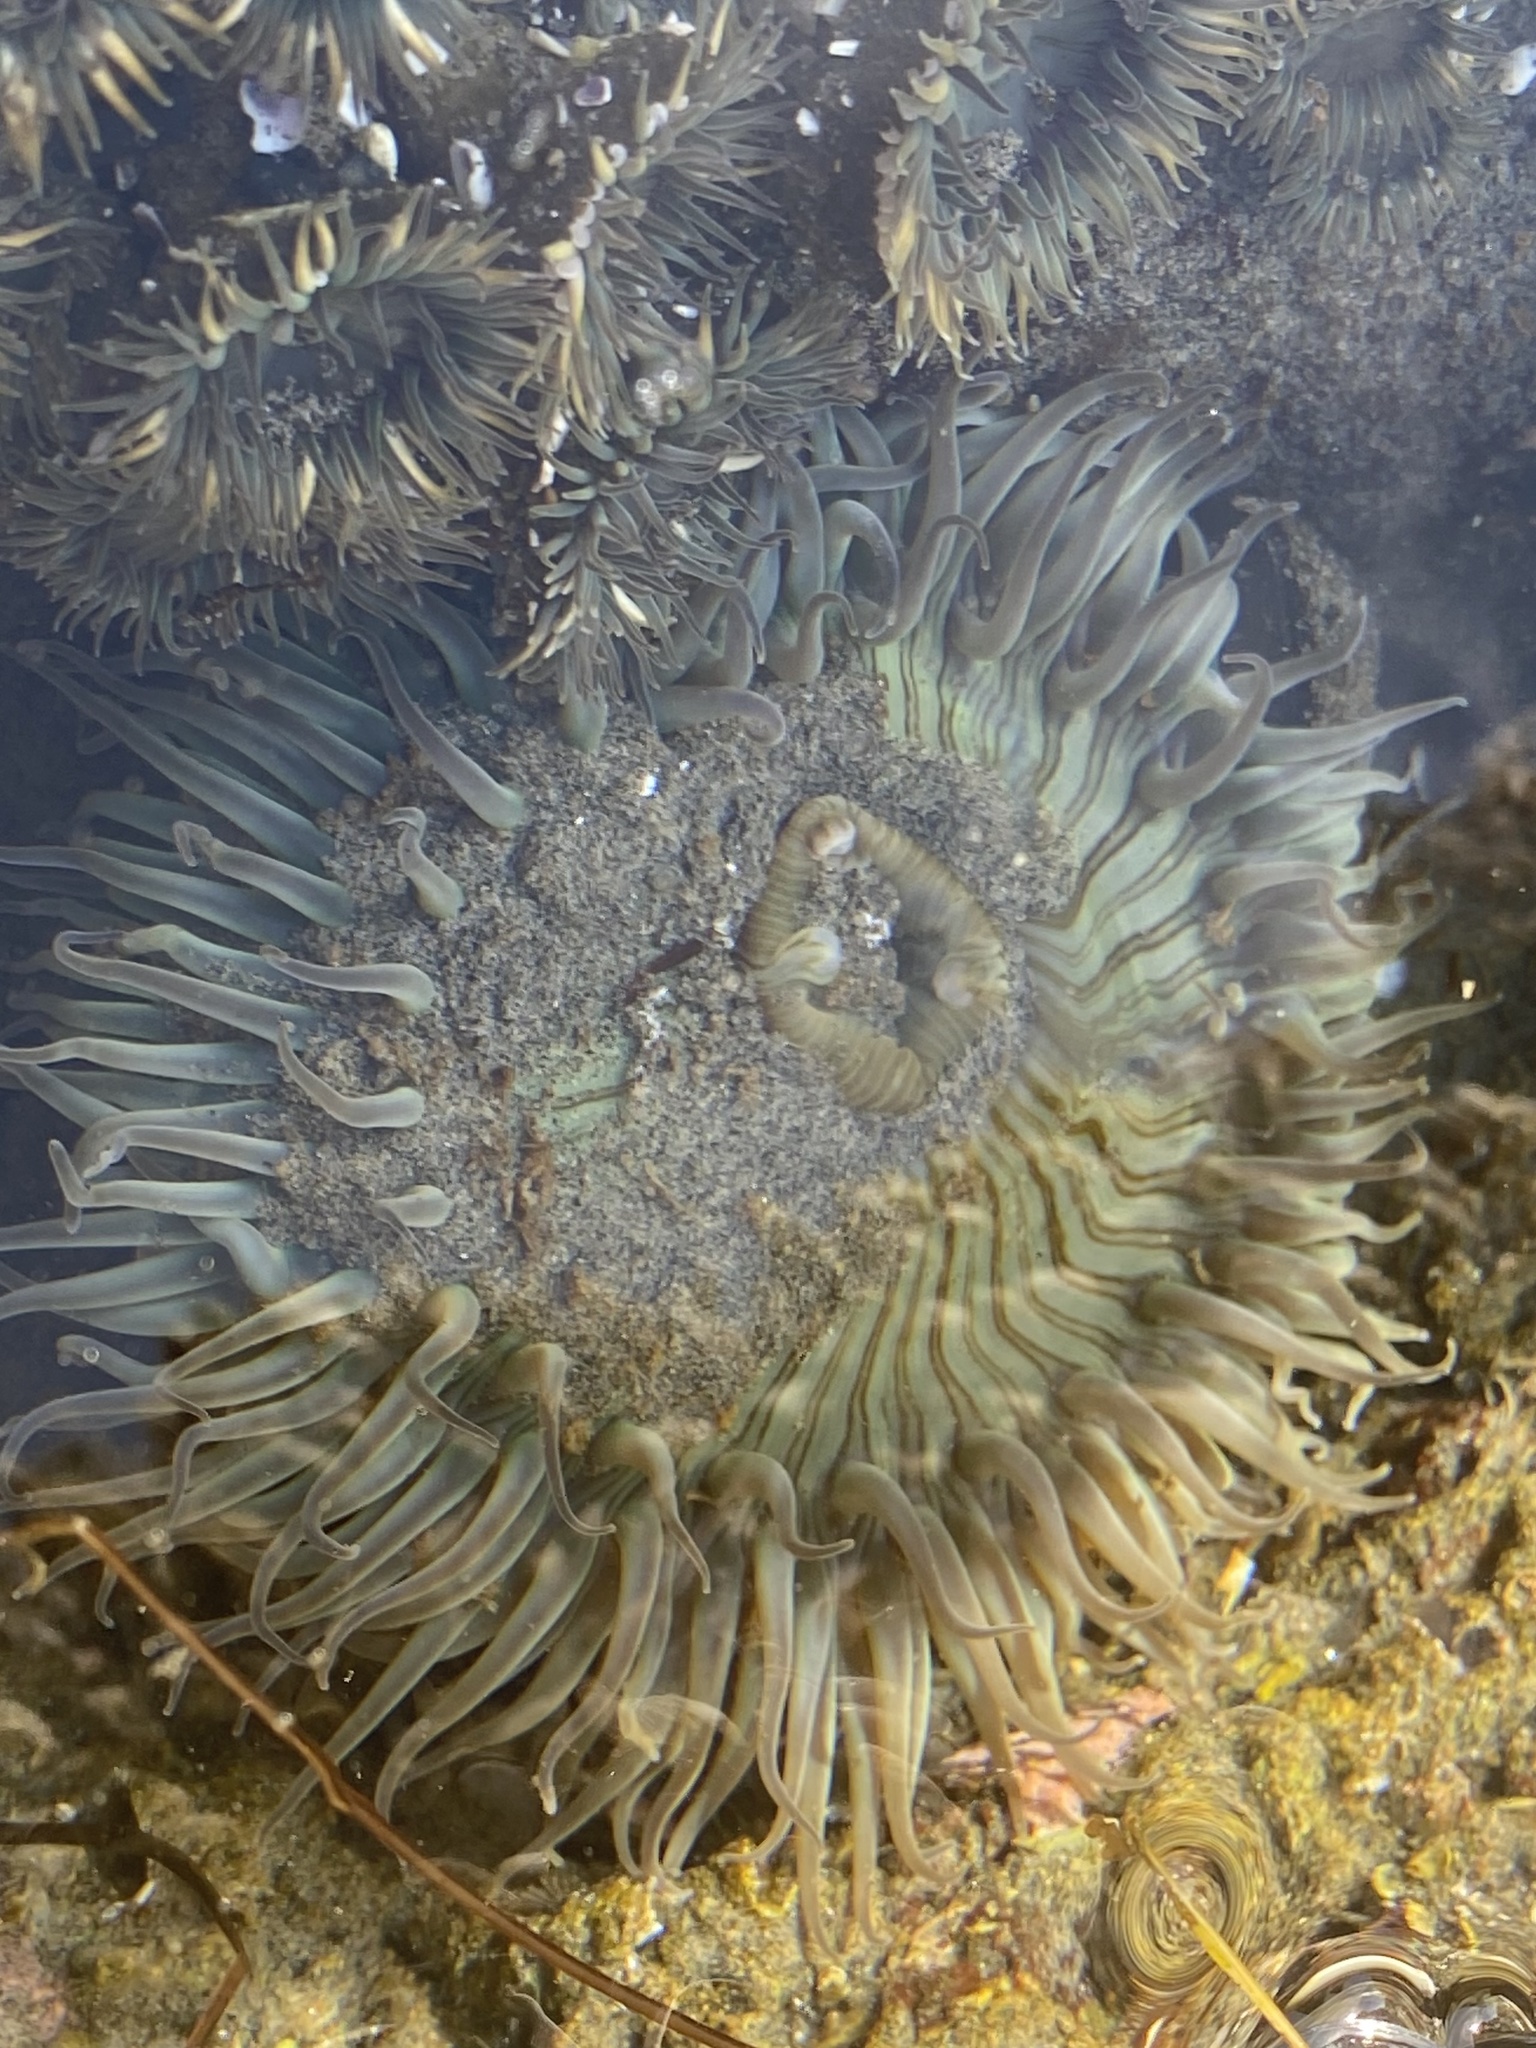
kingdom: Animalia
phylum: Cnidaria
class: Anthozoa
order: Actiniaria
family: Actiniidae
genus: Anthopleura
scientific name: Anthopleura sola
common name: Sun anemone
